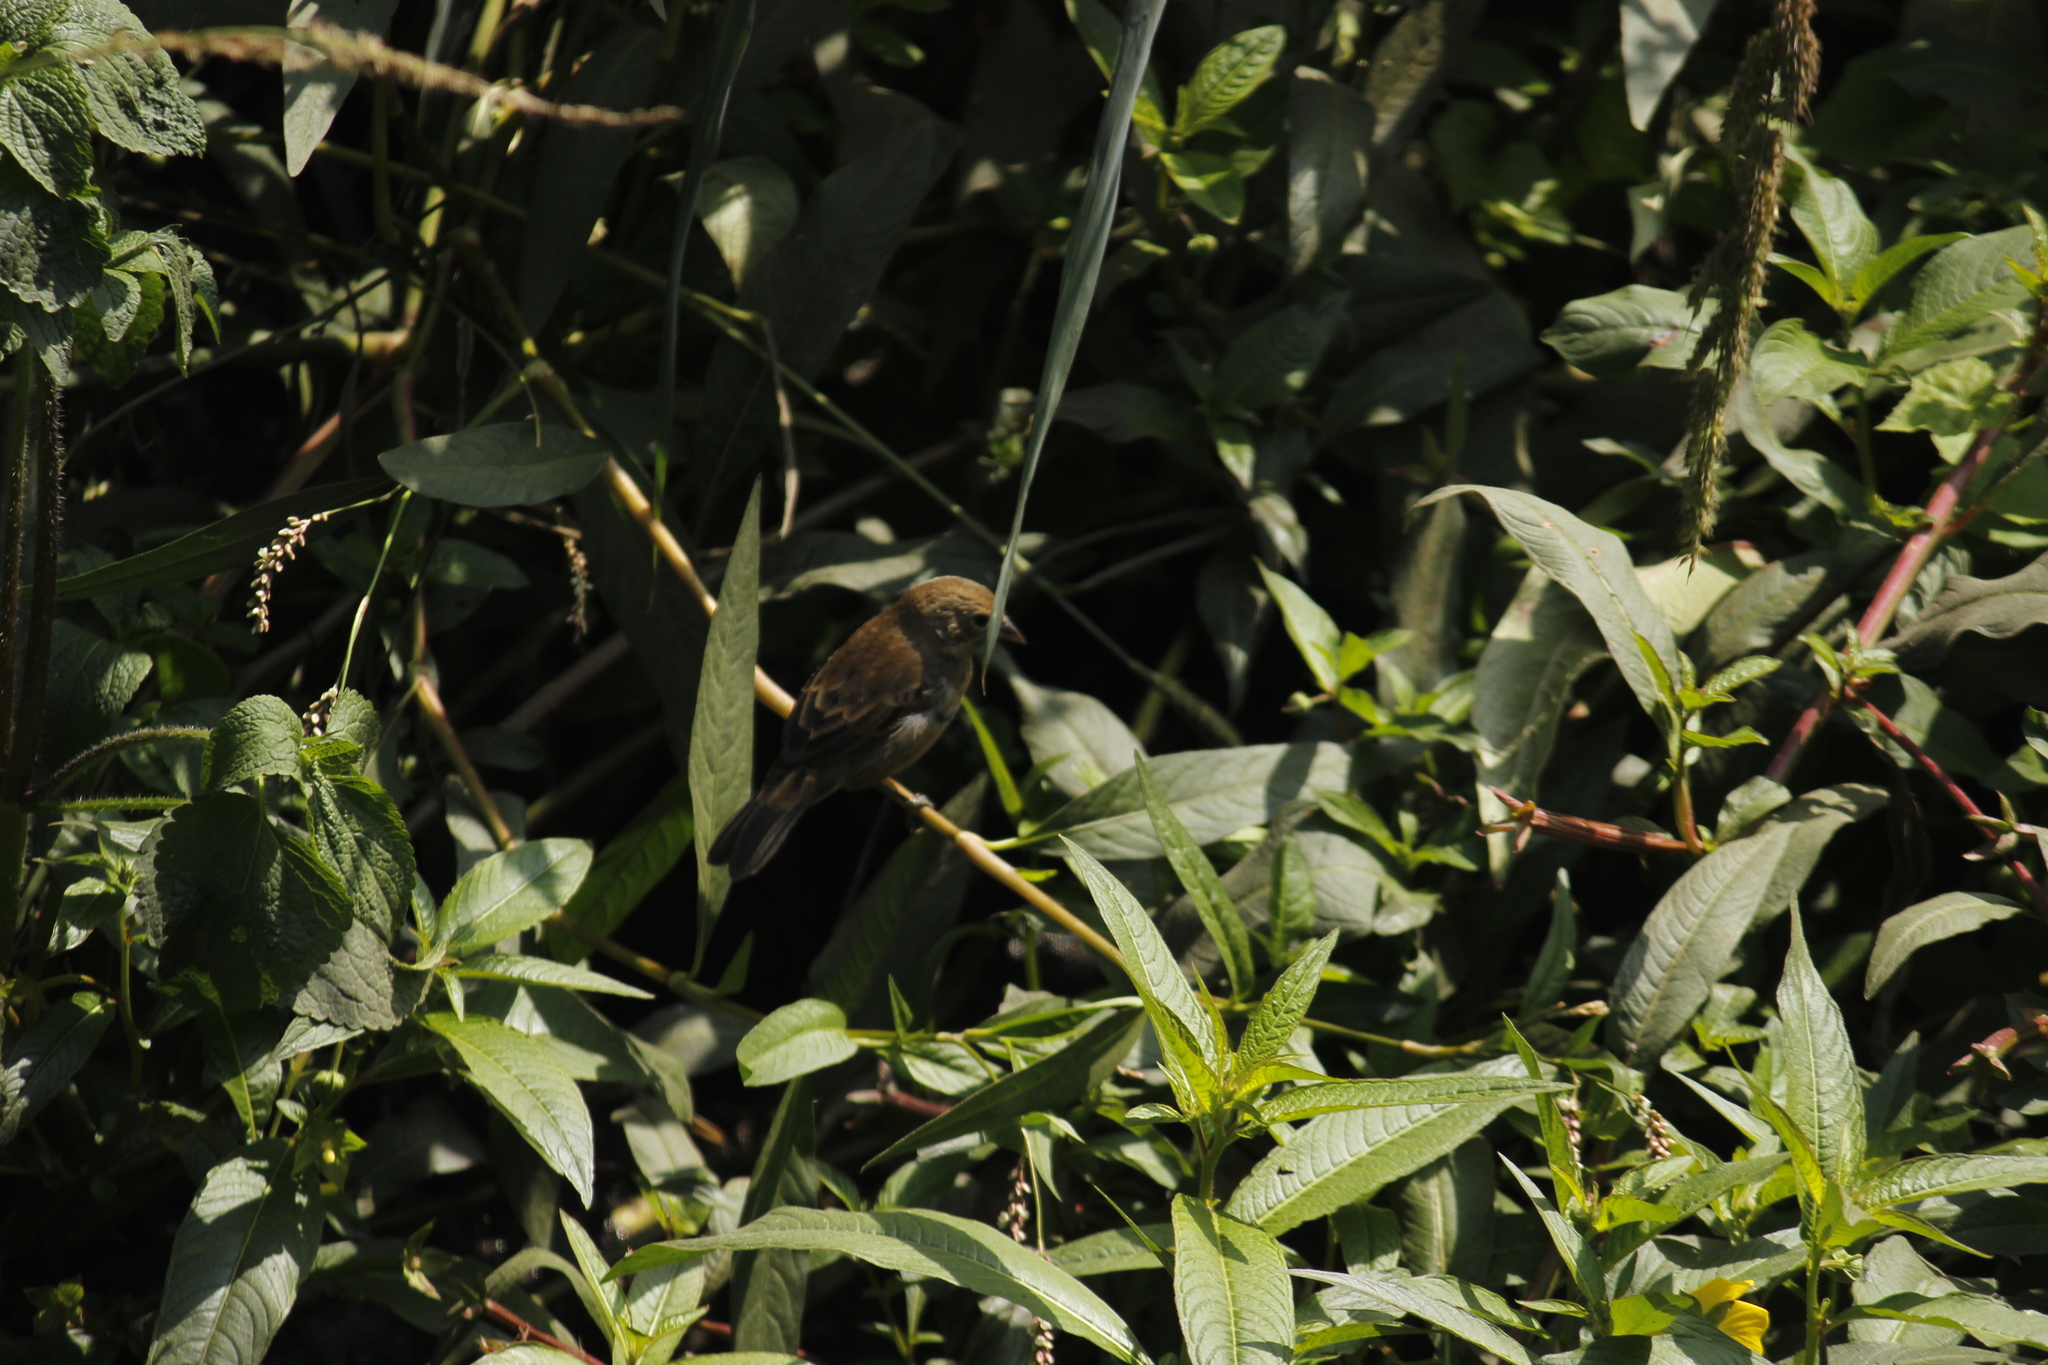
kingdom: Animalia
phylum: Chordata
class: Aves
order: Passeriformes
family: Thraupidae
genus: Volatinia
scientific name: Volatinia jacarina
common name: Blue-black grassquit
